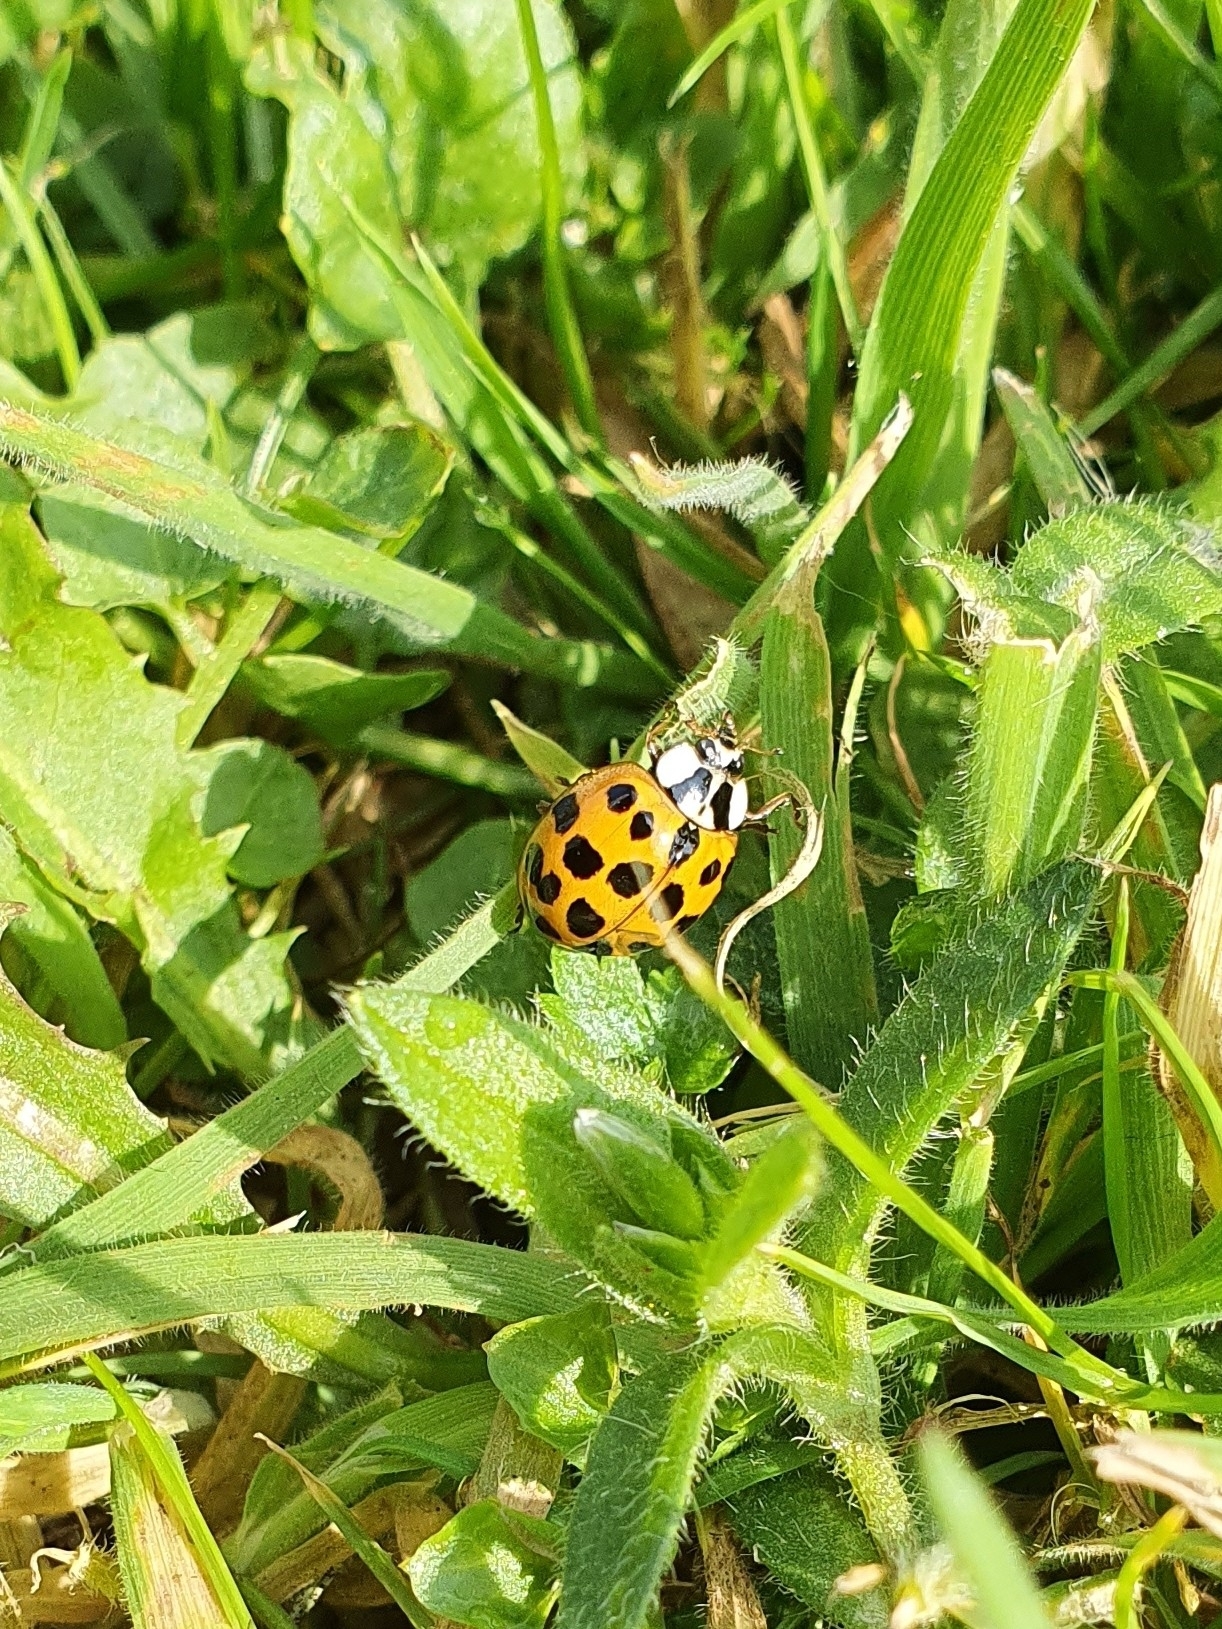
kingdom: Animalia
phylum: Arthropoda
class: Insecta
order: Coleoptera
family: Coccinellidae
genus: Harmonia
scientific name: Harmonia axyridis
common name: Harlequin ladybird
